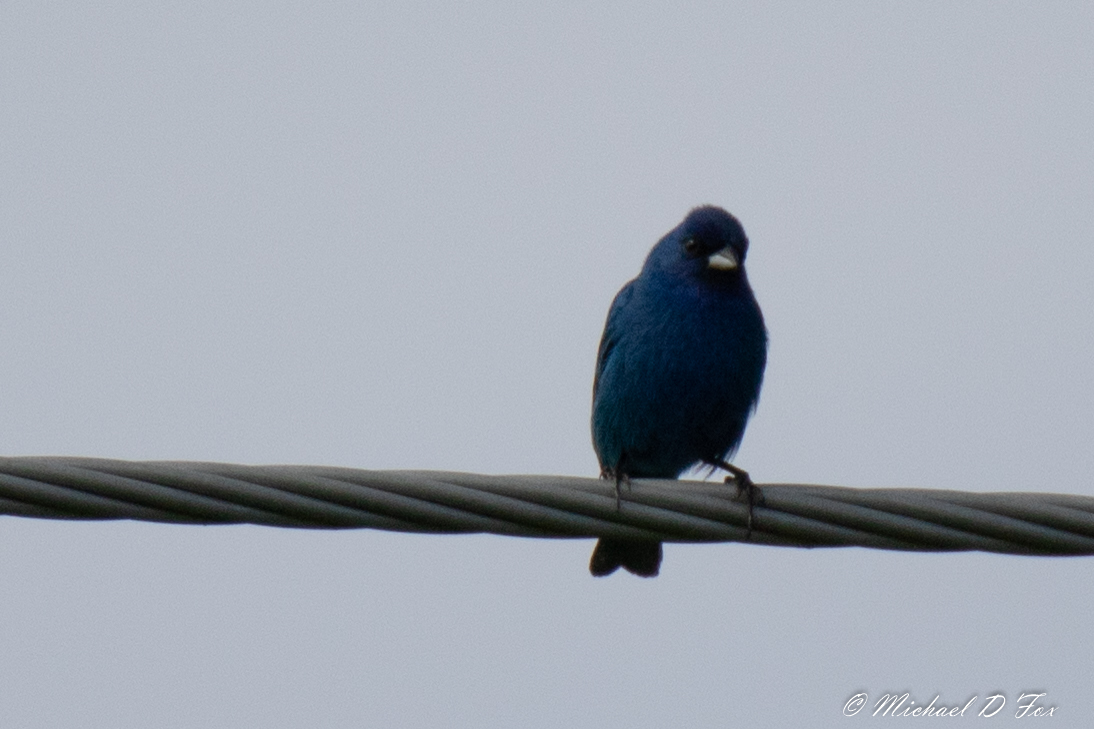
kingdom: Animalia
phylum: Chordata
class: Aves
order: Passeriformes
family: Cardinalidae
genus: Passerina
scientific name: Passerina cyanea
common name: Indigo bunting
